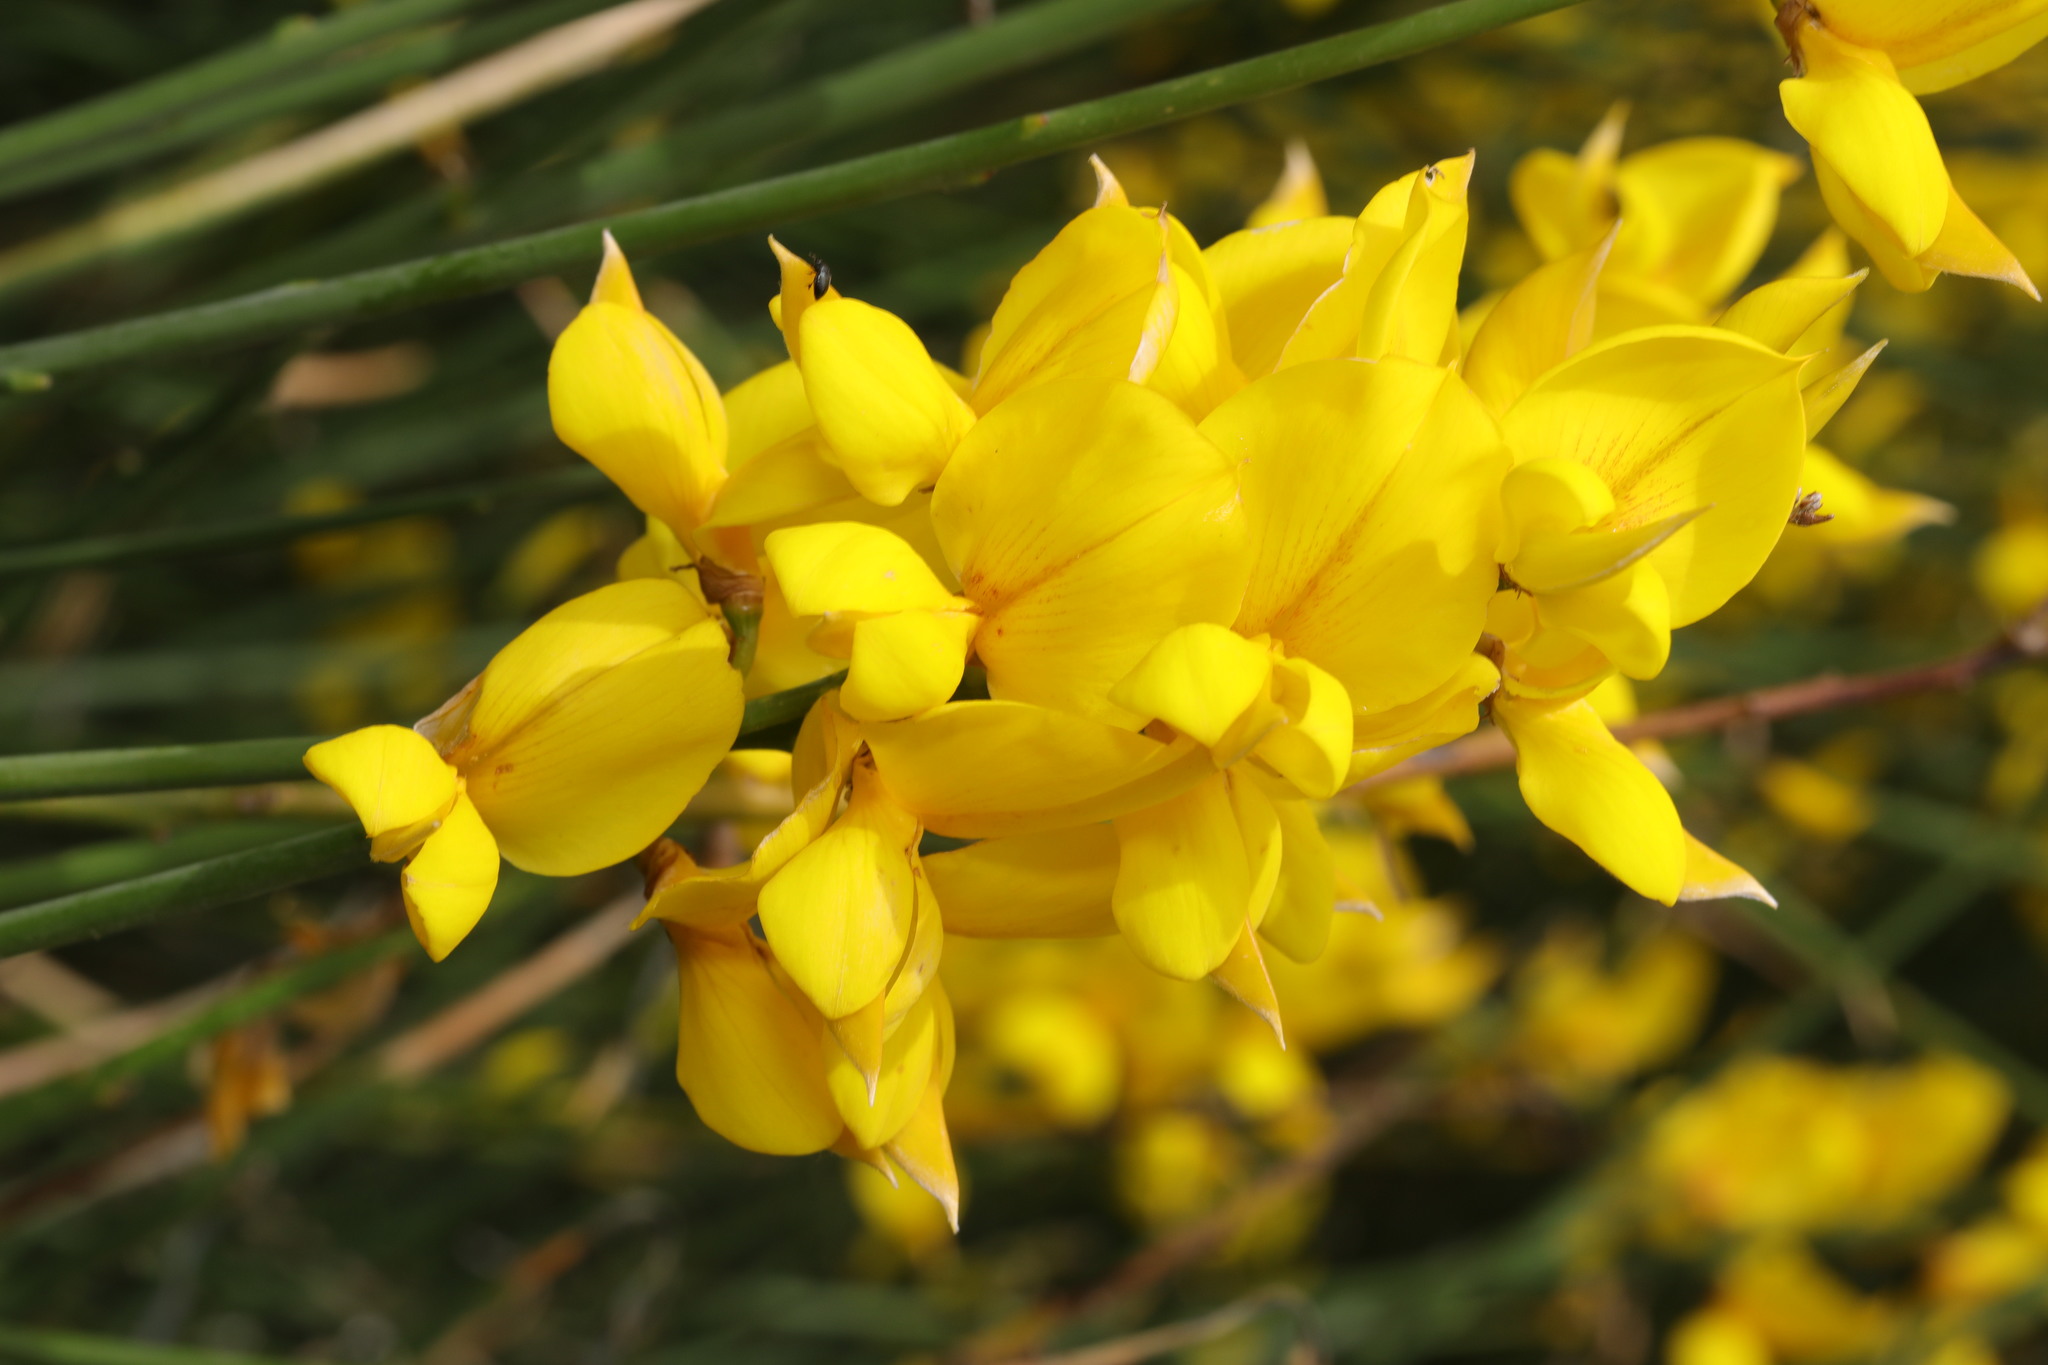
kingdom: Plantae
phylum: Tracheophyta
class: Magnoliopsida
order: Fabales
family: Fabaceae
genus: Spartium
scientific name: Spartium junceum
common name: Spanish broom
